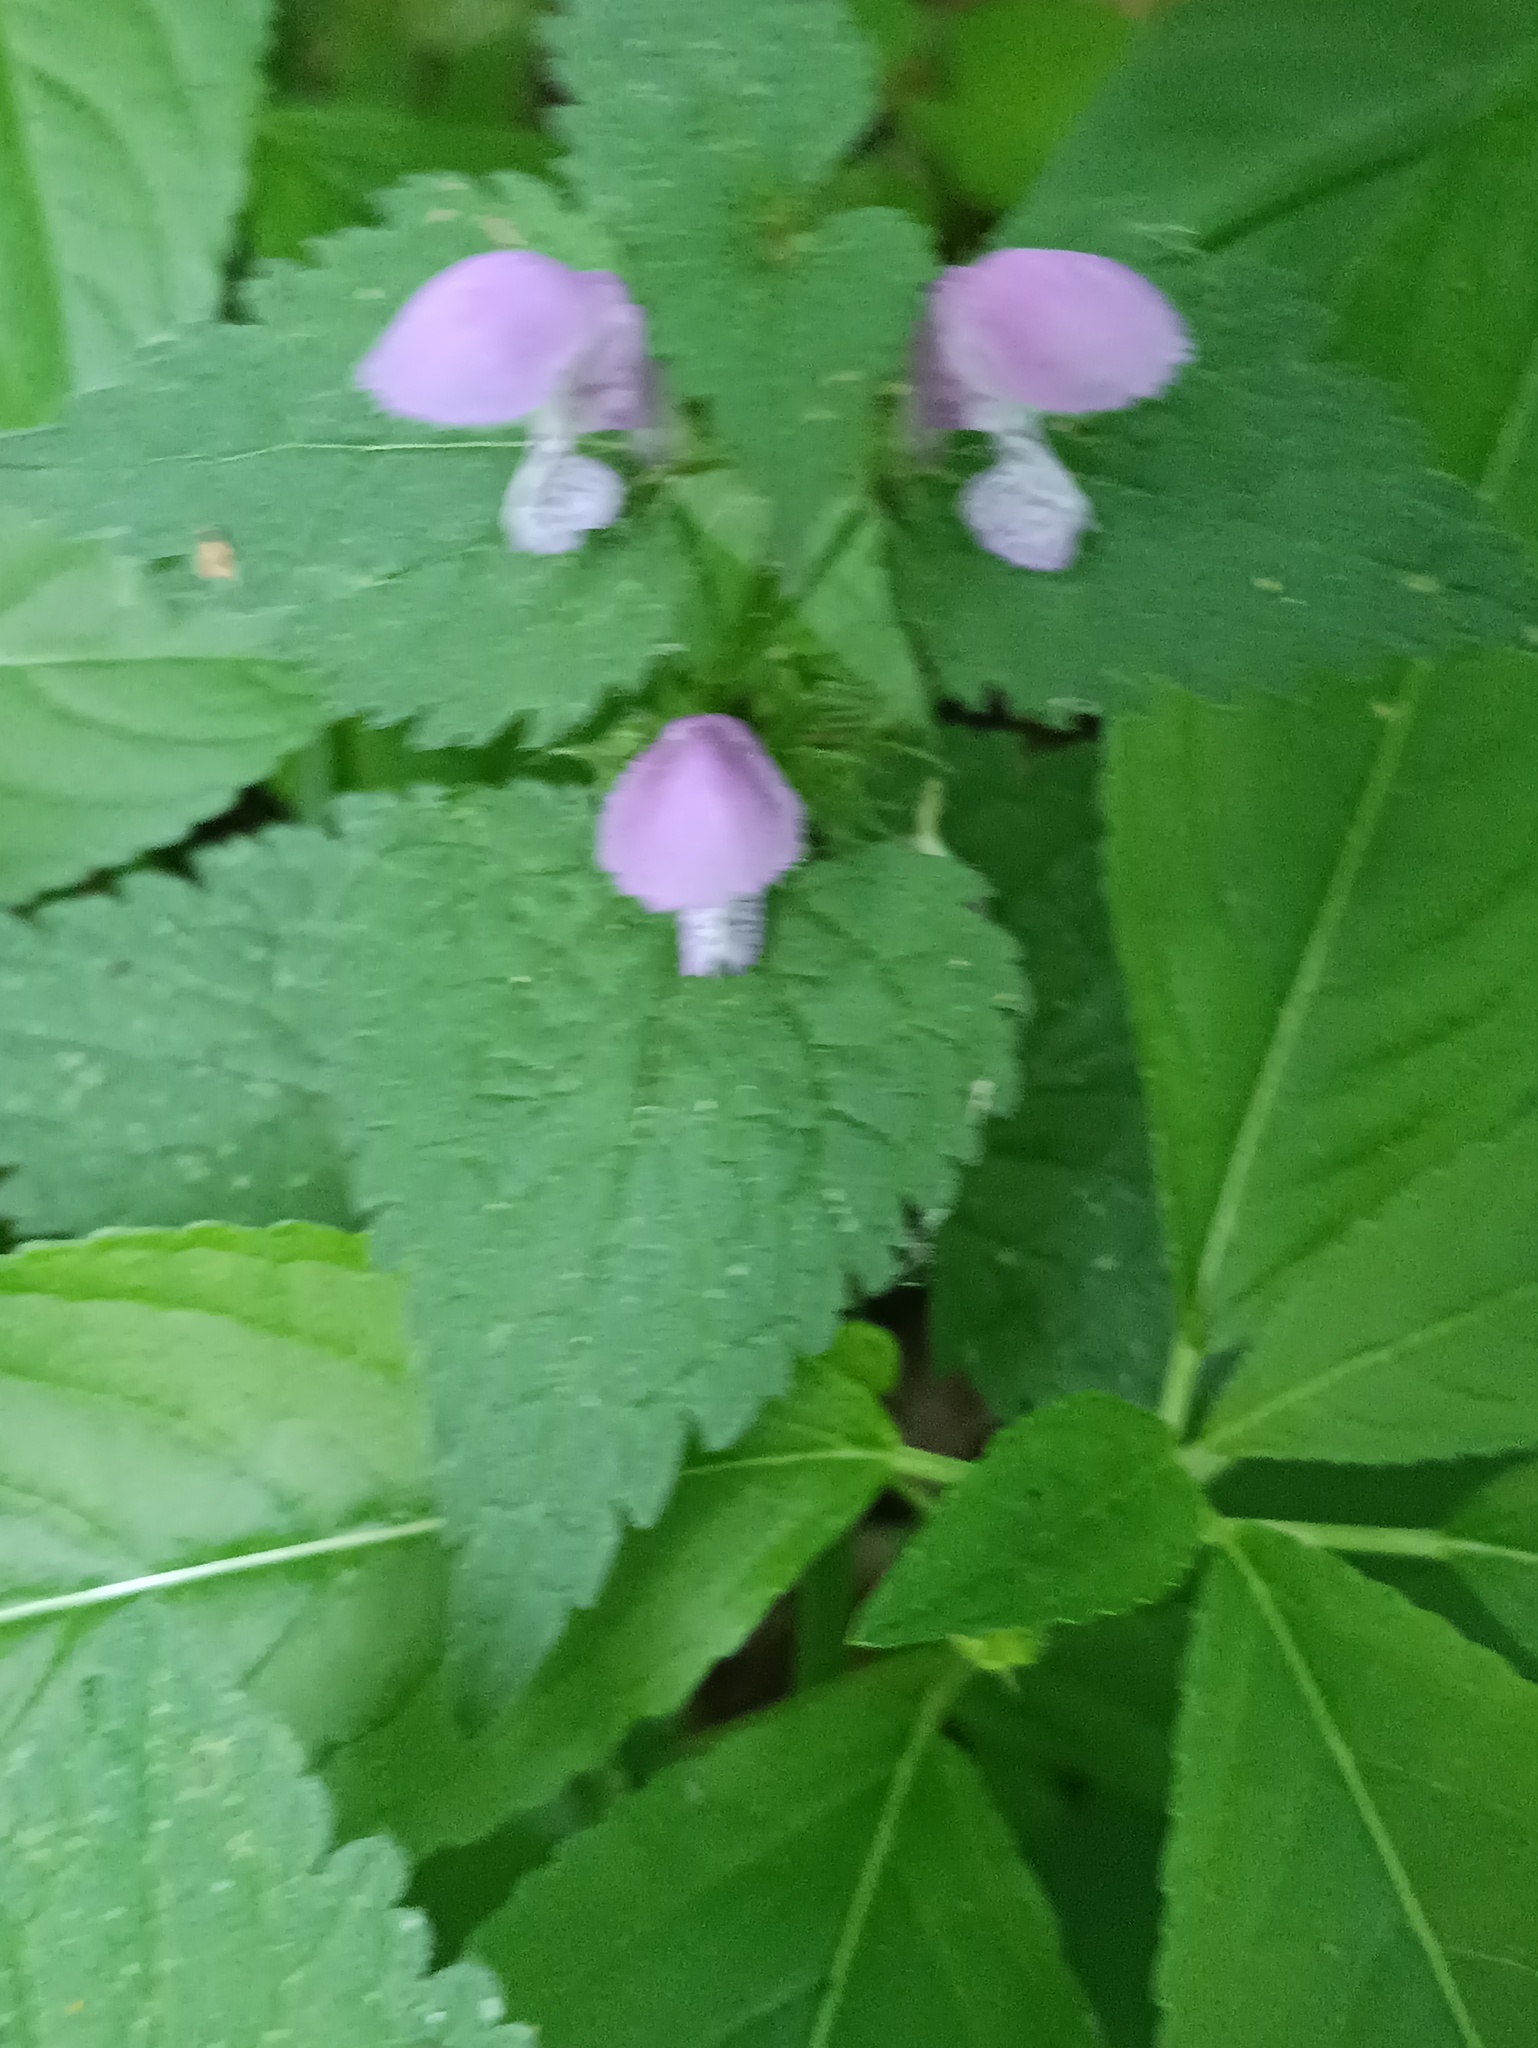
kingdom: Plantae
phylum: Tracheophyta
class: Magnoliopsida
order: Lamiales
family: Lamiaceae
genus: Lamium
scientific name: Lamium maculatum
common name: Spotted dead-nettle
